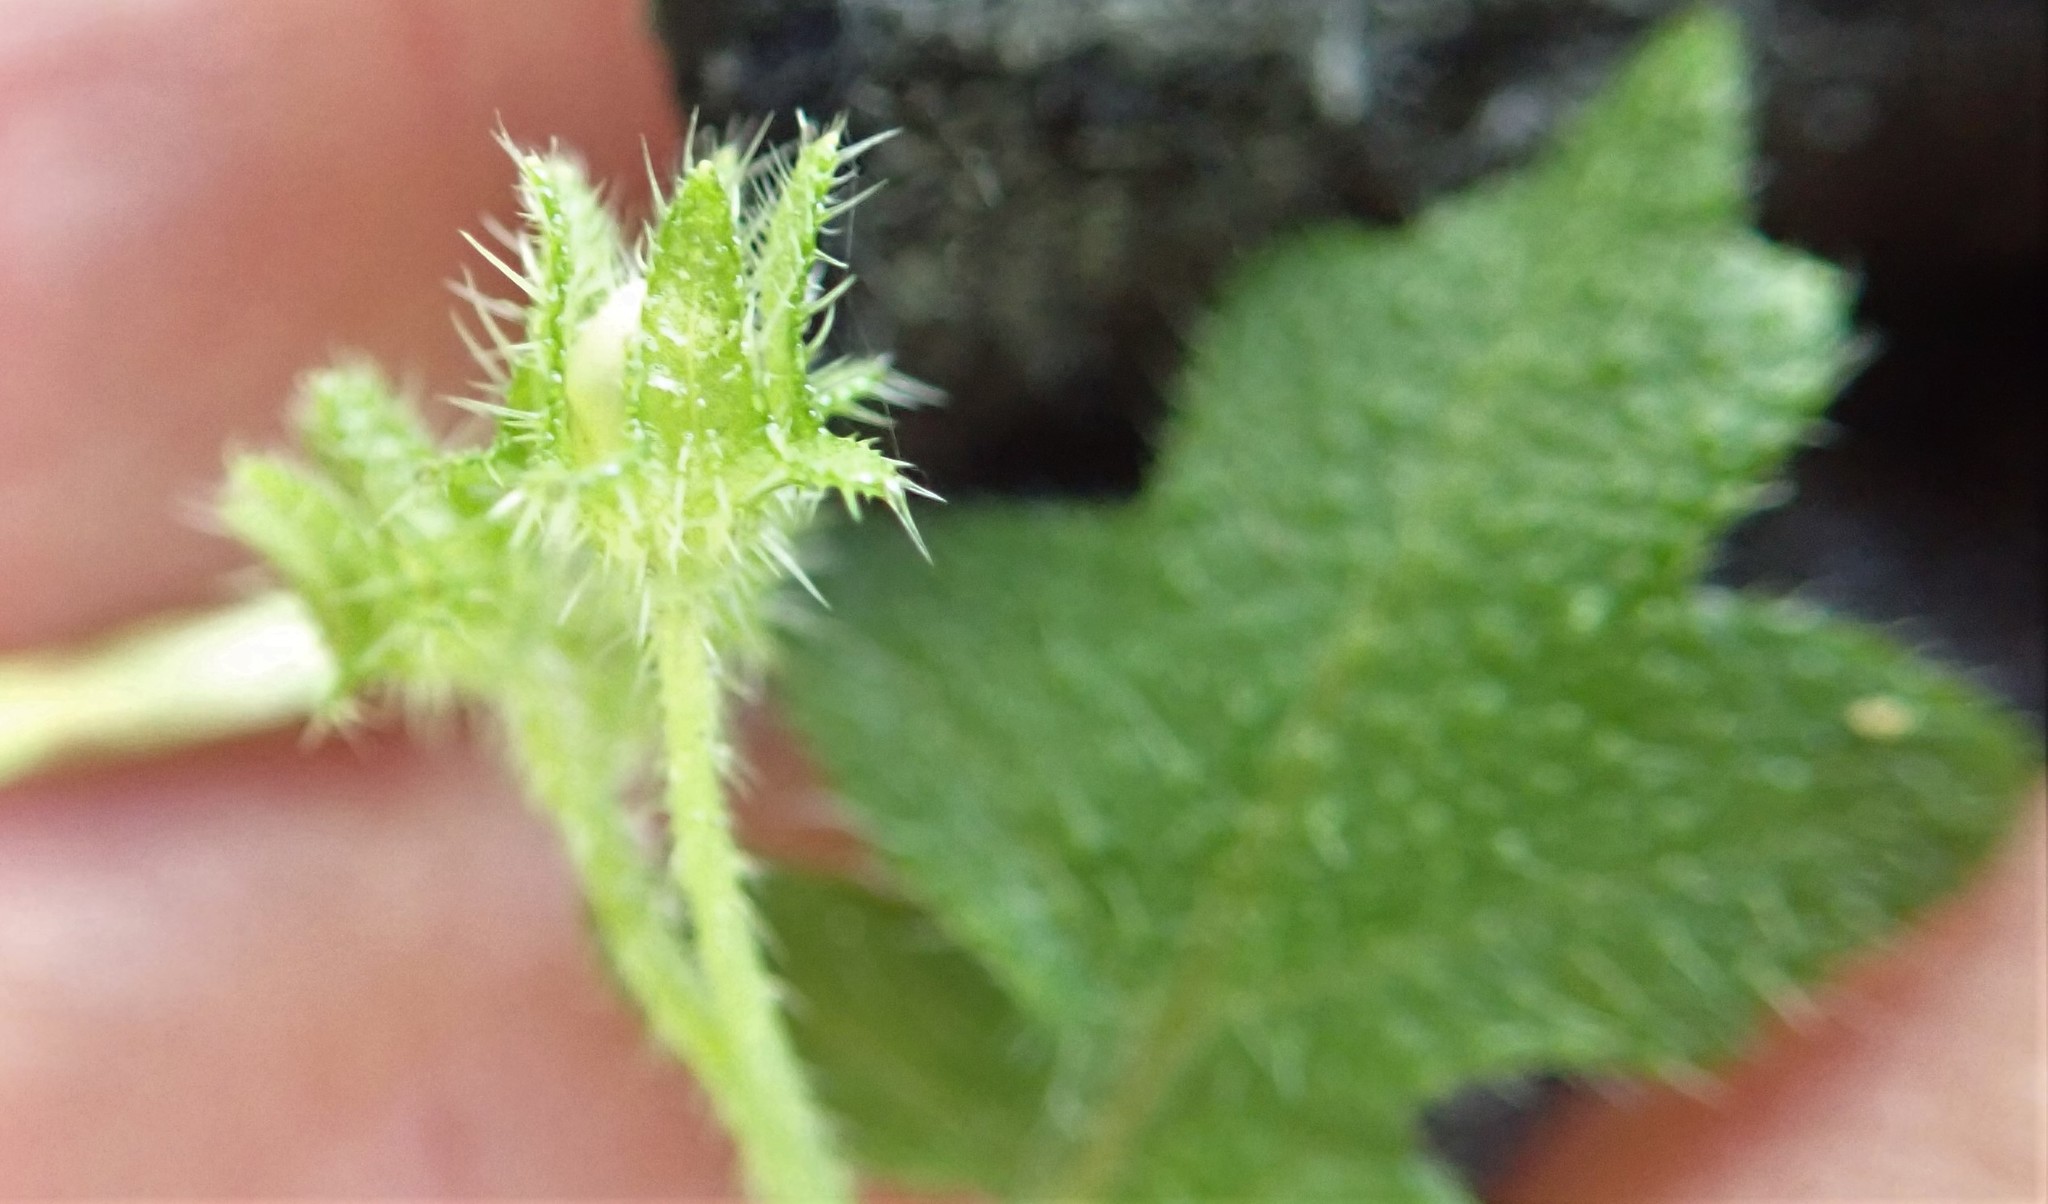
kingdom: Plantae
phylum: Tracheophyta
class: Magnoliopsida
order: Boraginales
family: Hydrophyllaceae
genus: Pholistoma
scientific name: Pholistoma racemosum
